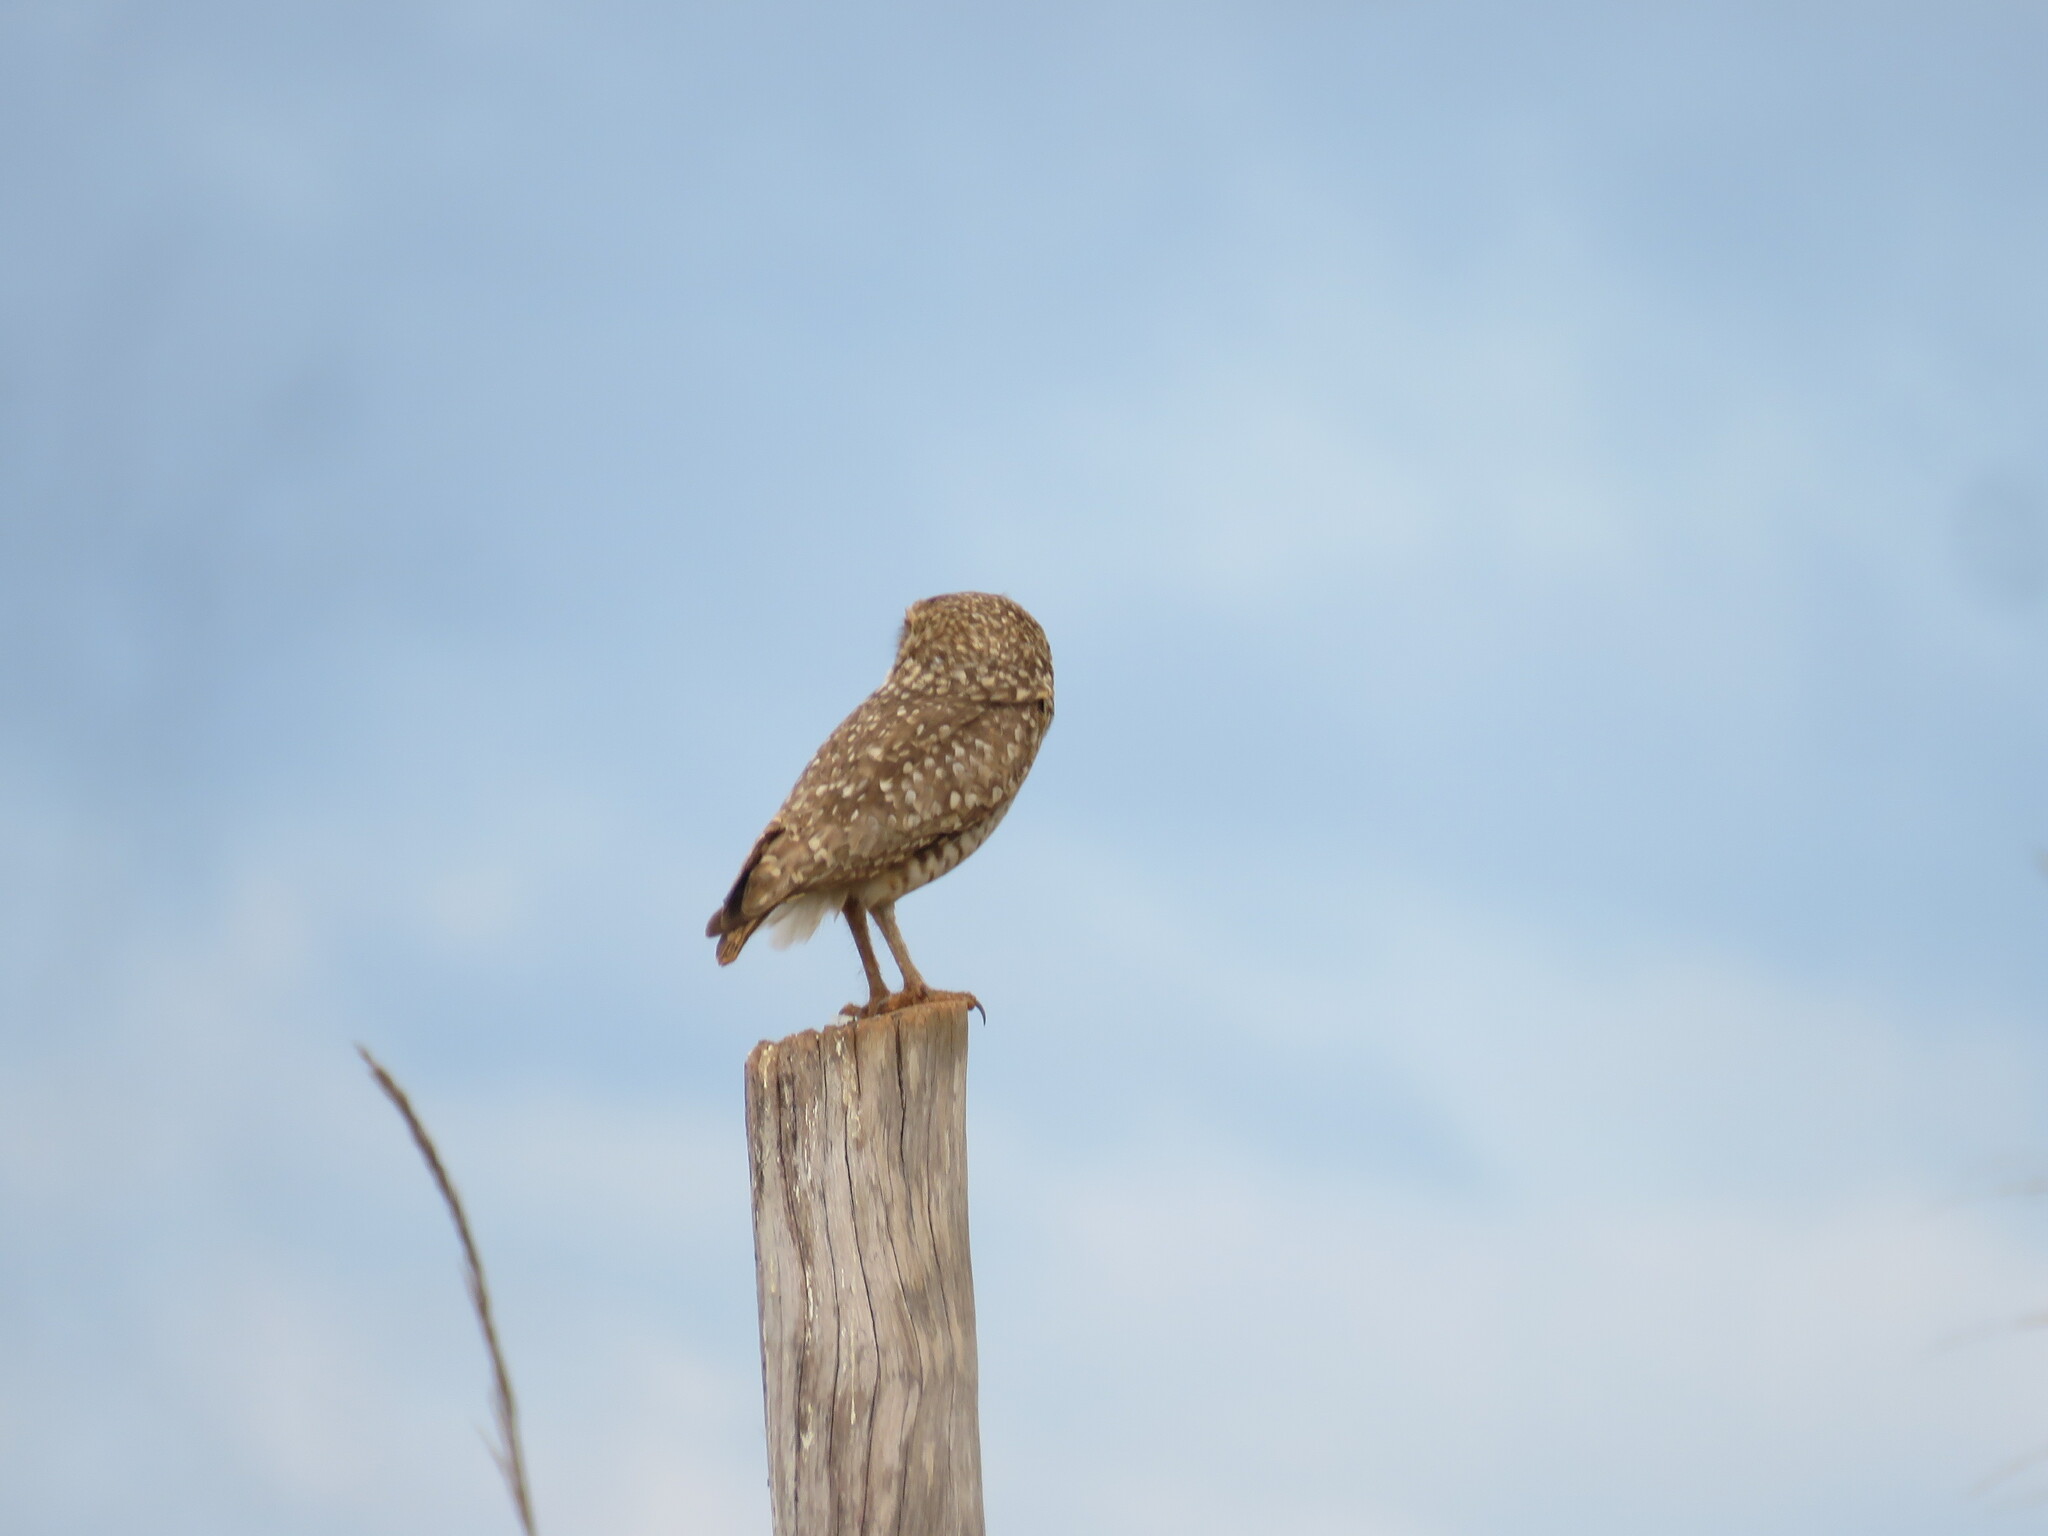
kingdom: Animalia
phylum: Chordata
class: Aves
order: Strigiformes
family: Strigidae
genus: Athene
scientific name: Athene cunicularia
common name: Burrowing owl
